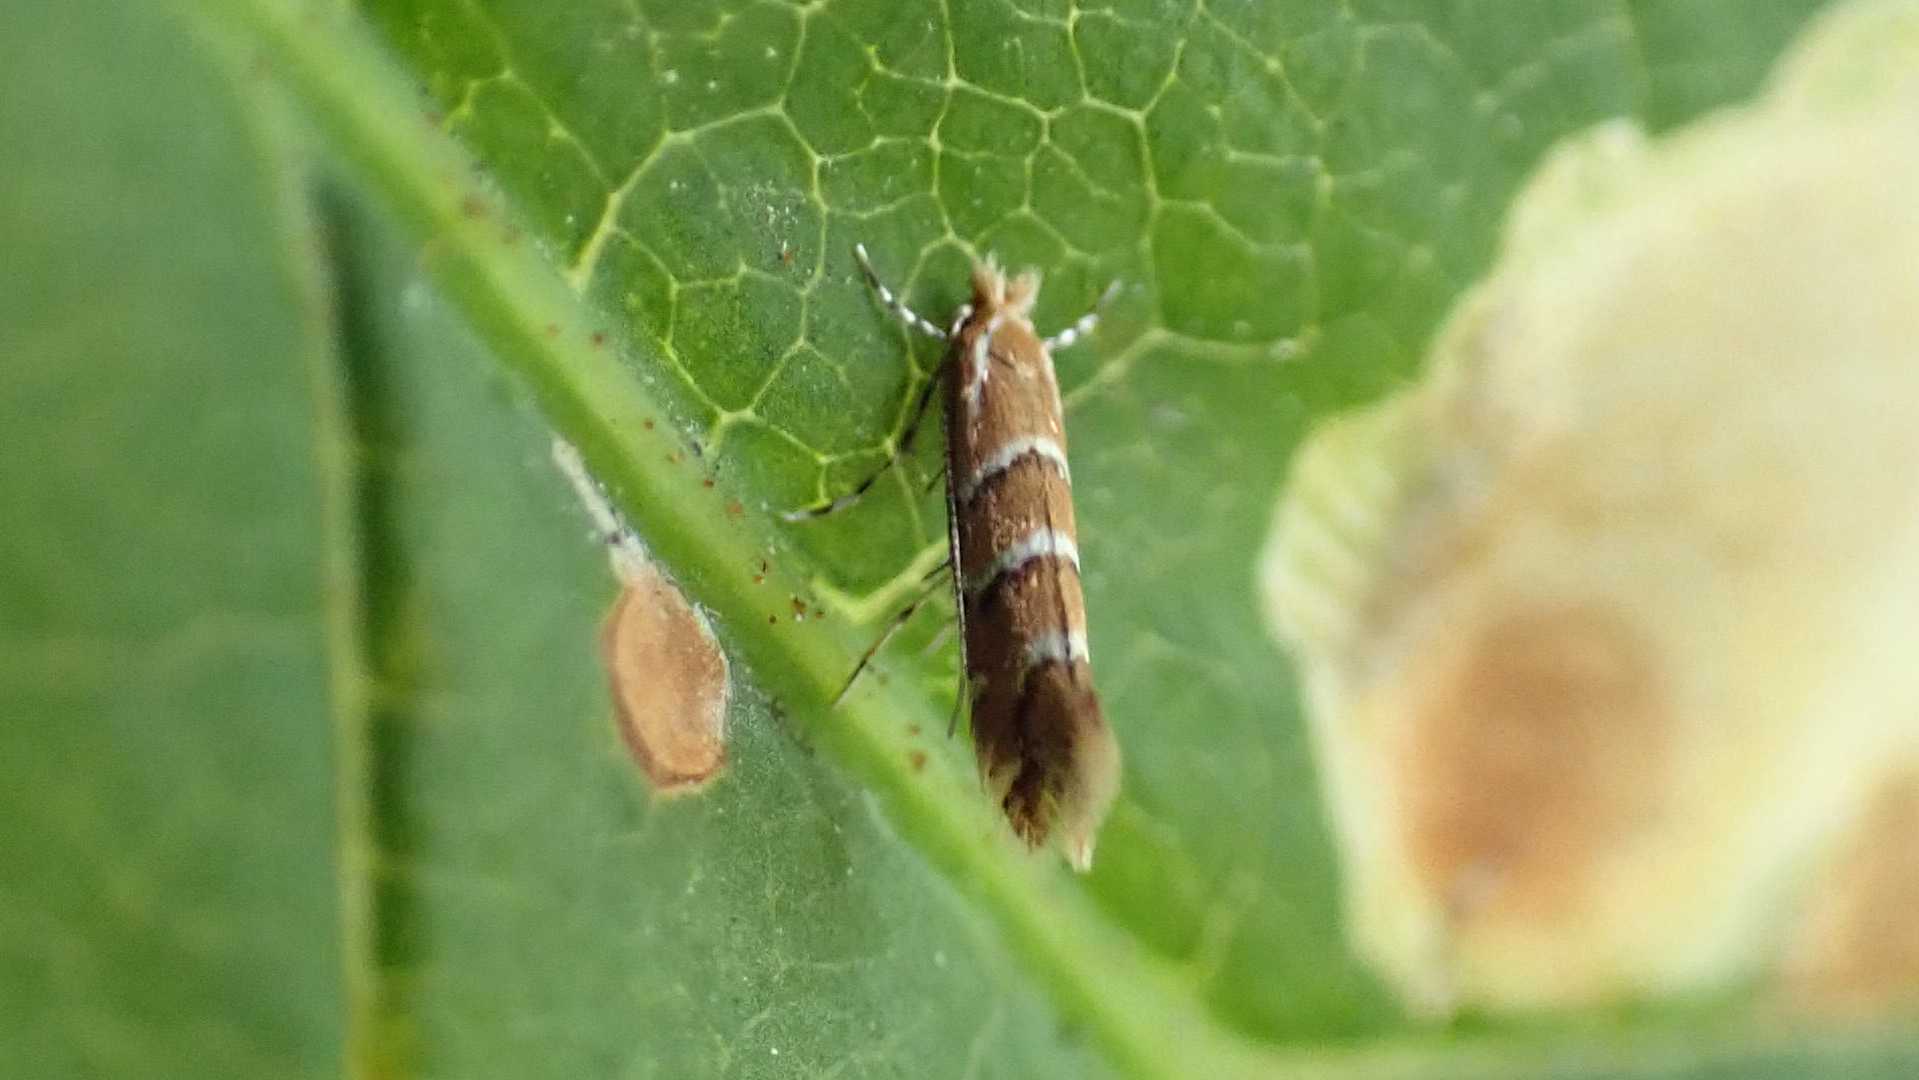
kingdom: Animalia
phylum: Arthropoda
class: Insecta
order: Lepidoptera
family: Gracillariidae
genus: Cameraria
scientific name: Cameraria ohridella
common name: Horse-chestnut leaf-miner
